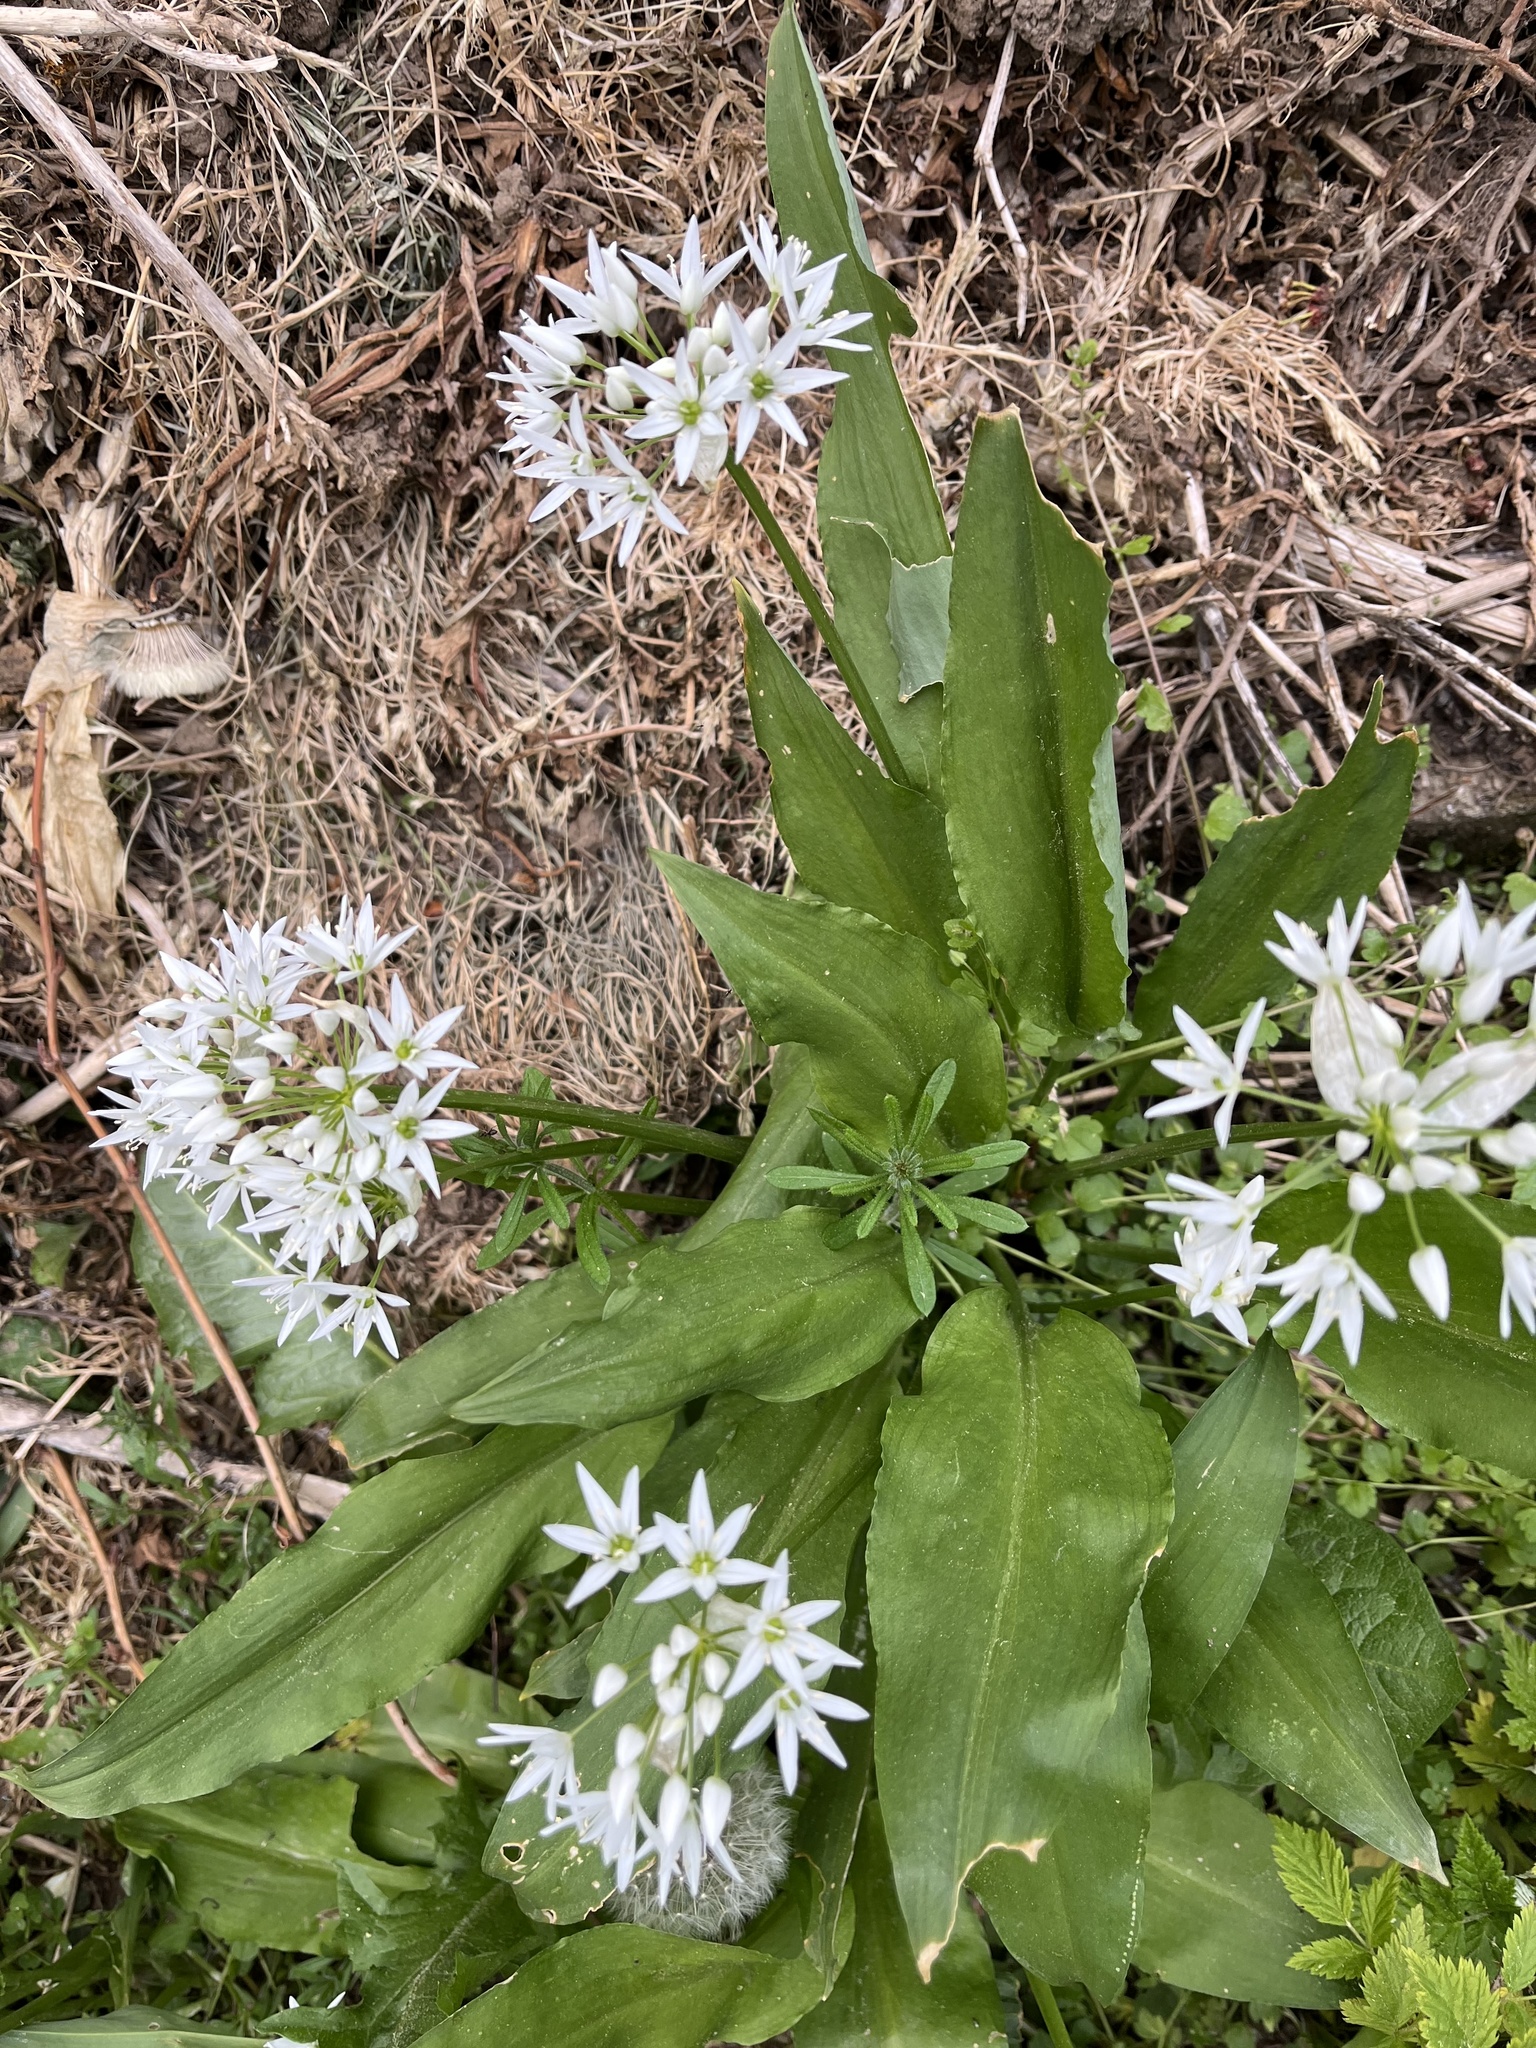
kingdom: Plantae
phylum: Tracheophyta
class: Liliopsida
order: Asparagales
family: Amaryllidaceae
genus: Allium
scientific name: Allium ursinum
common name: Ramsons
